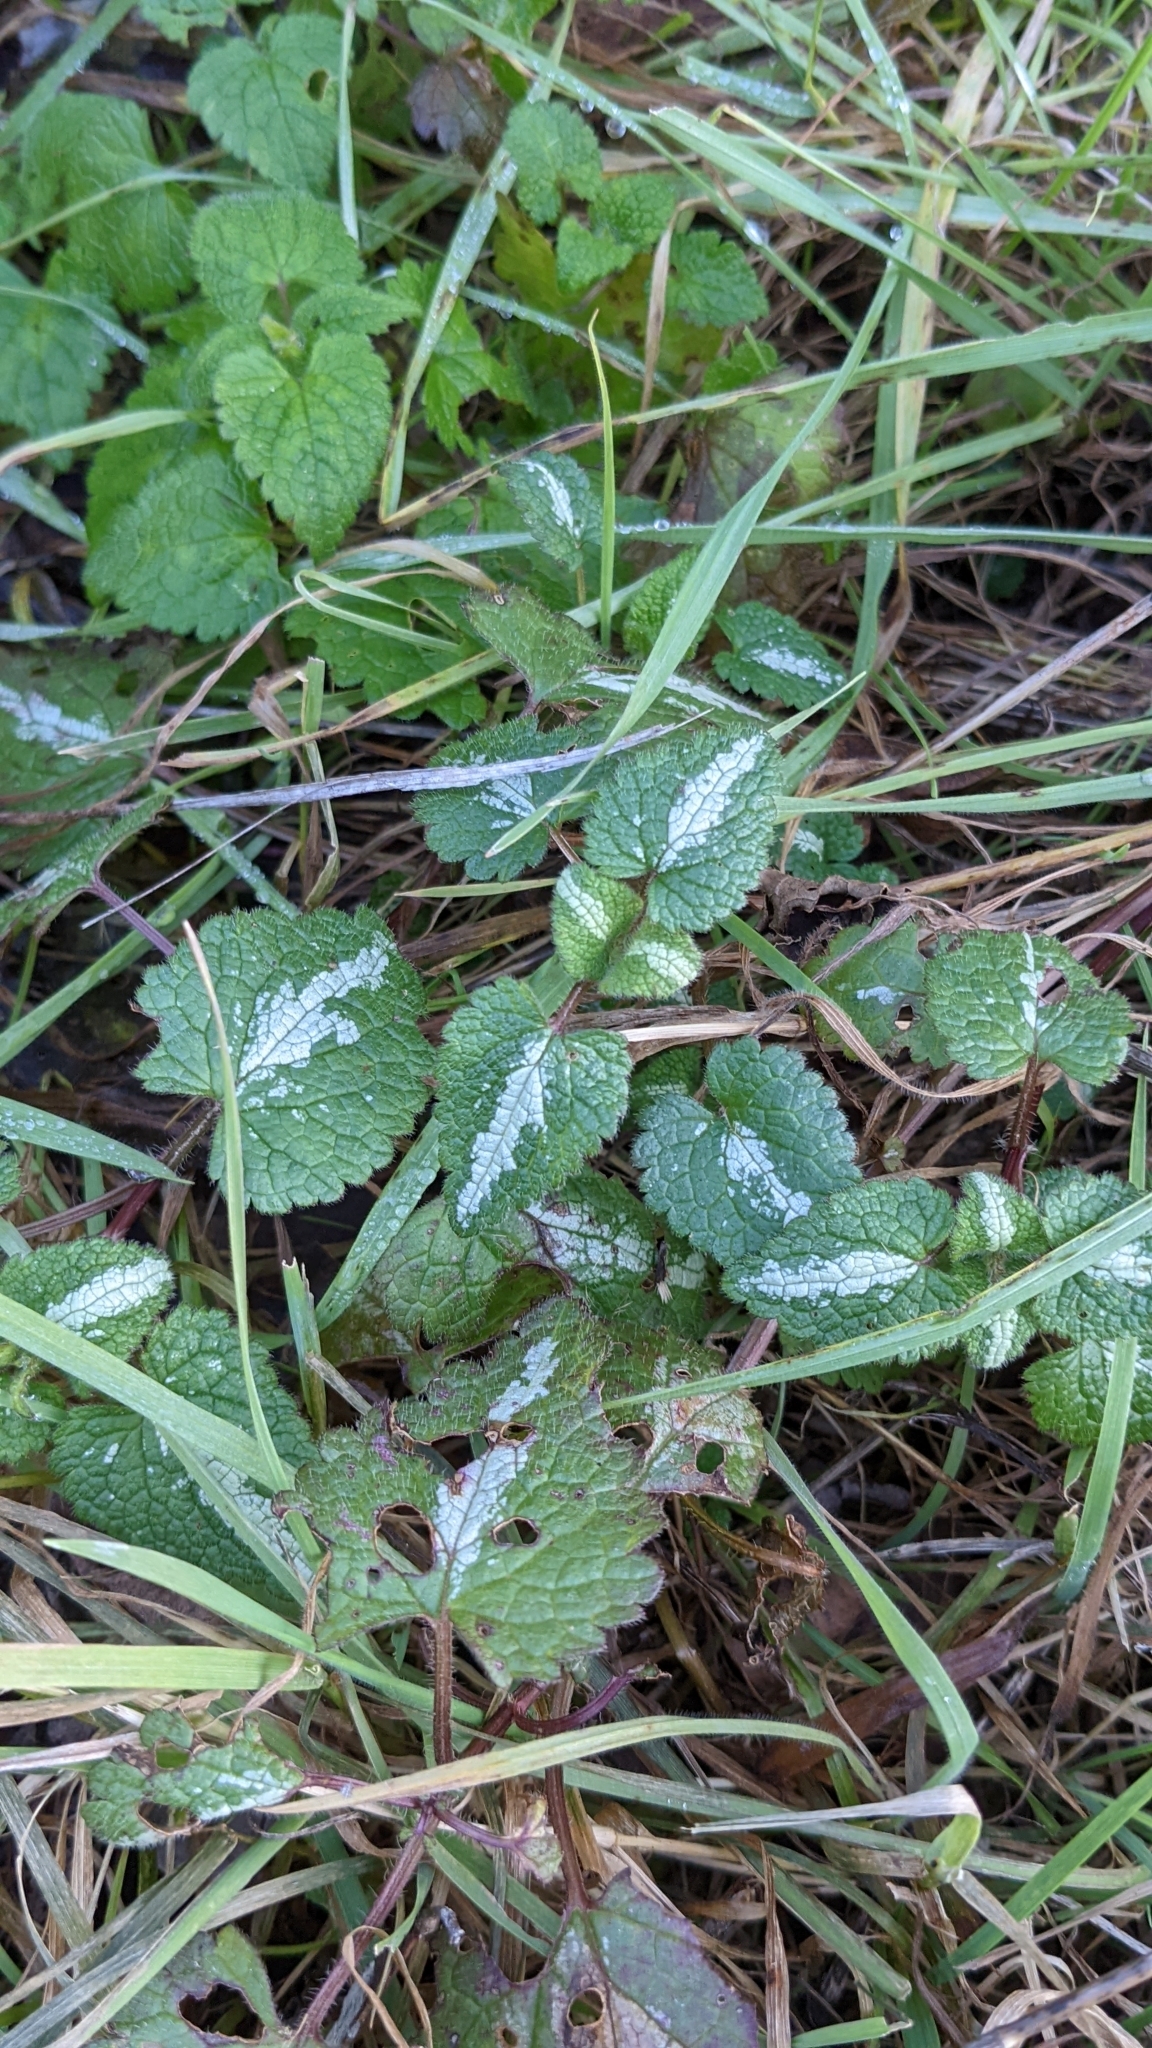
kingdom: Plantae
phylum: Tracheophyta
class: Magnoliopsida
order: Lamiales
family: Lamiaceae
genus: Lamium
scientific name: Lamium maculatum
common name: Spotted dead-nettle
